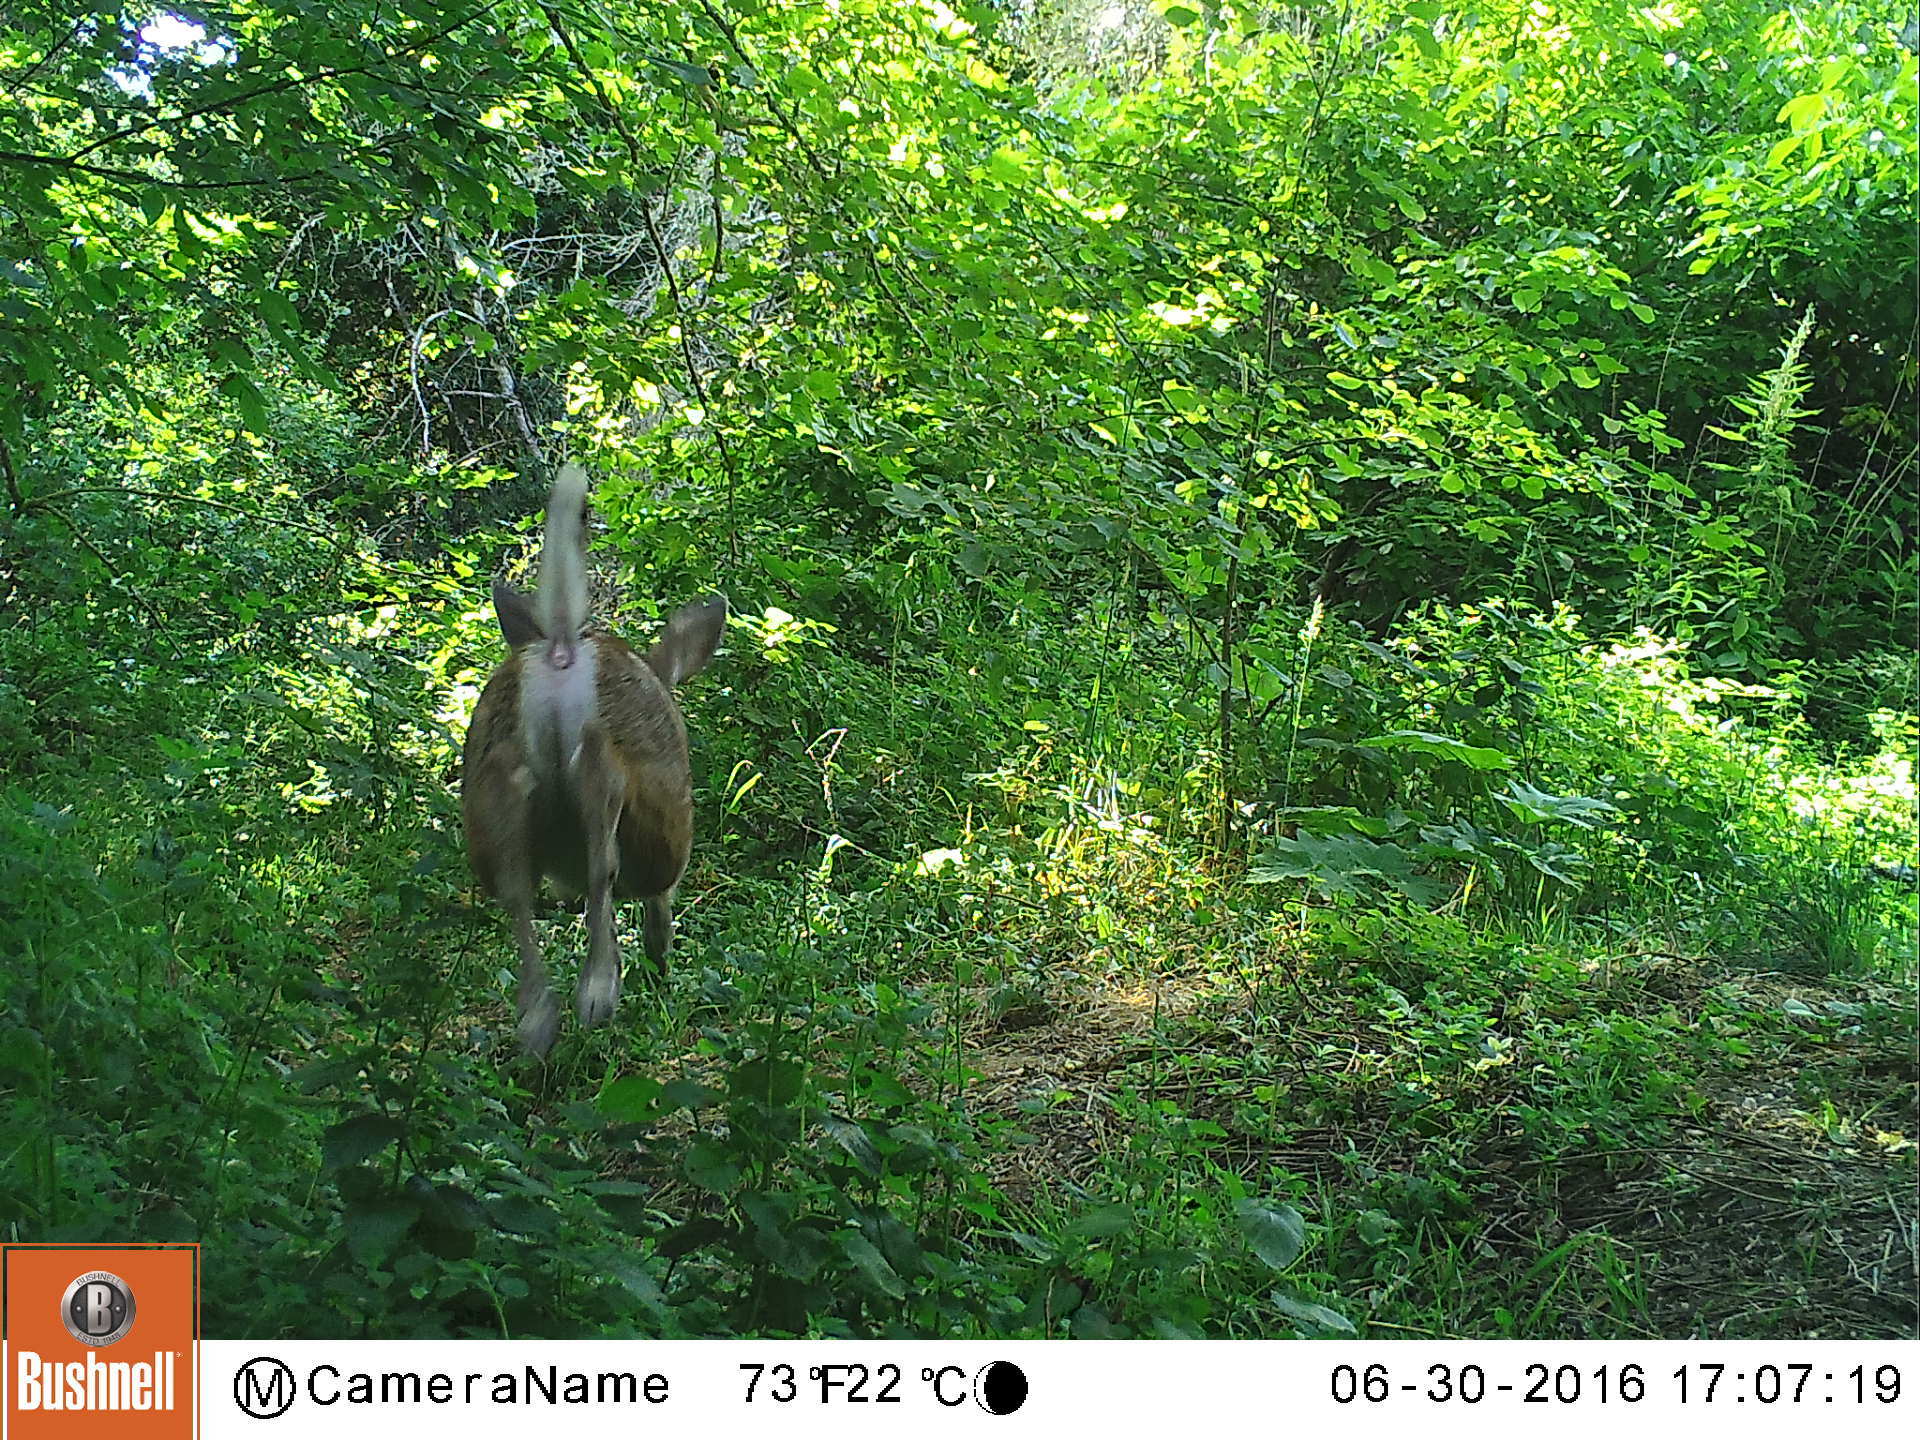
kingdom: Animalia
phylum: Chordata
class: Mammalia
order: Artiodactyla
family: Cervidae
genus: Odocoileus
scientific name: Odocoileus hemionus
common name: Mule deer
